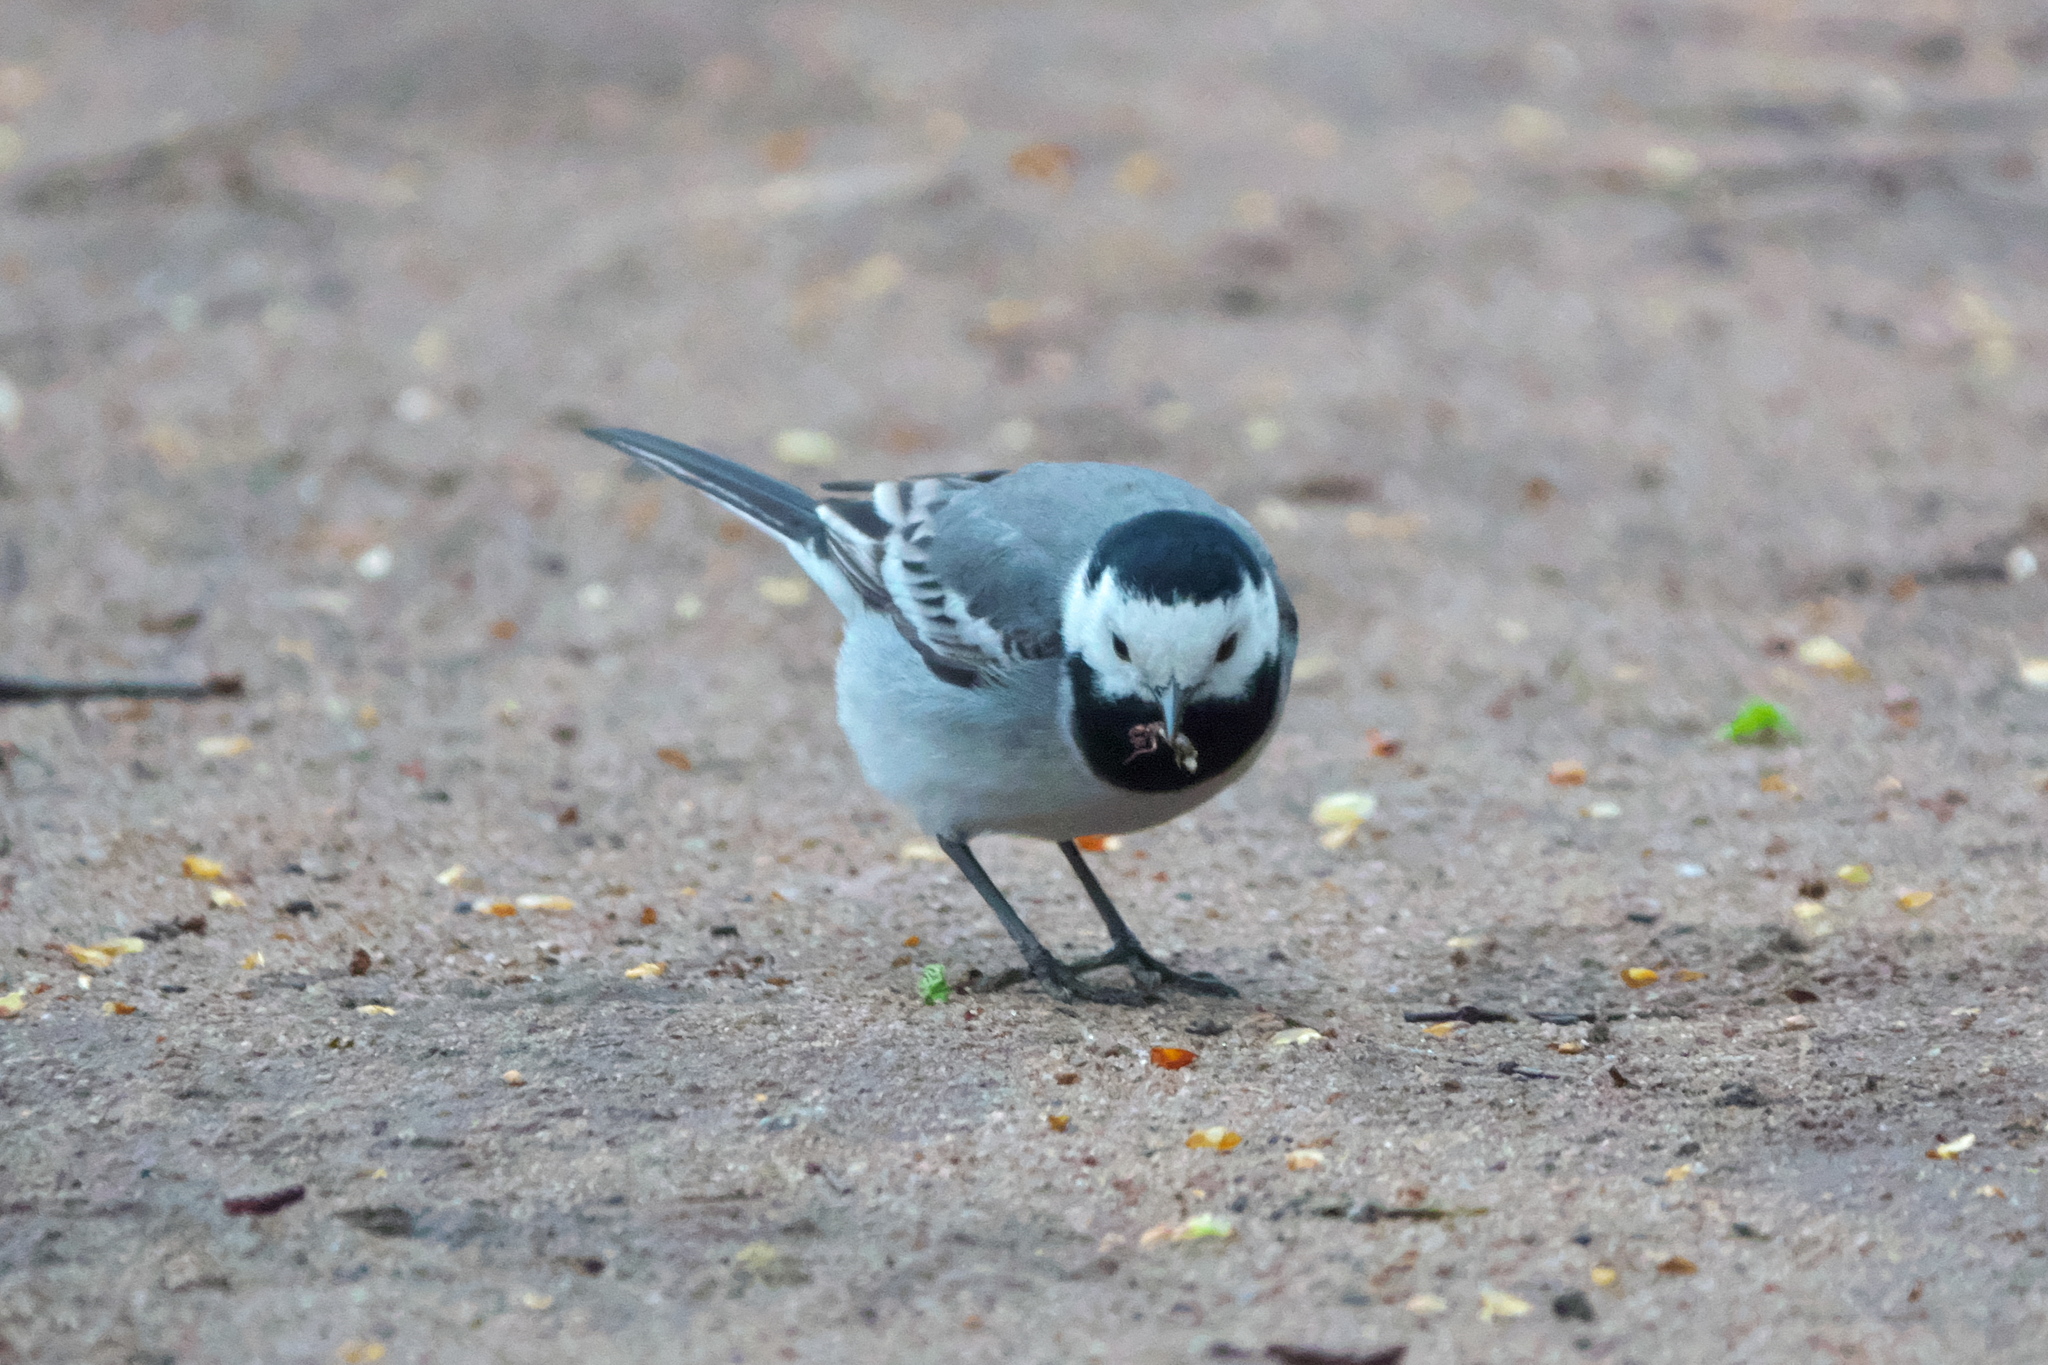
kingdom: Animalia
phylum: Chordata
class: Aves
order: Passeriformes
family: Motacillidae
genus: Motacilla
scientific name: Motacilla alba
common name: White wagtail
